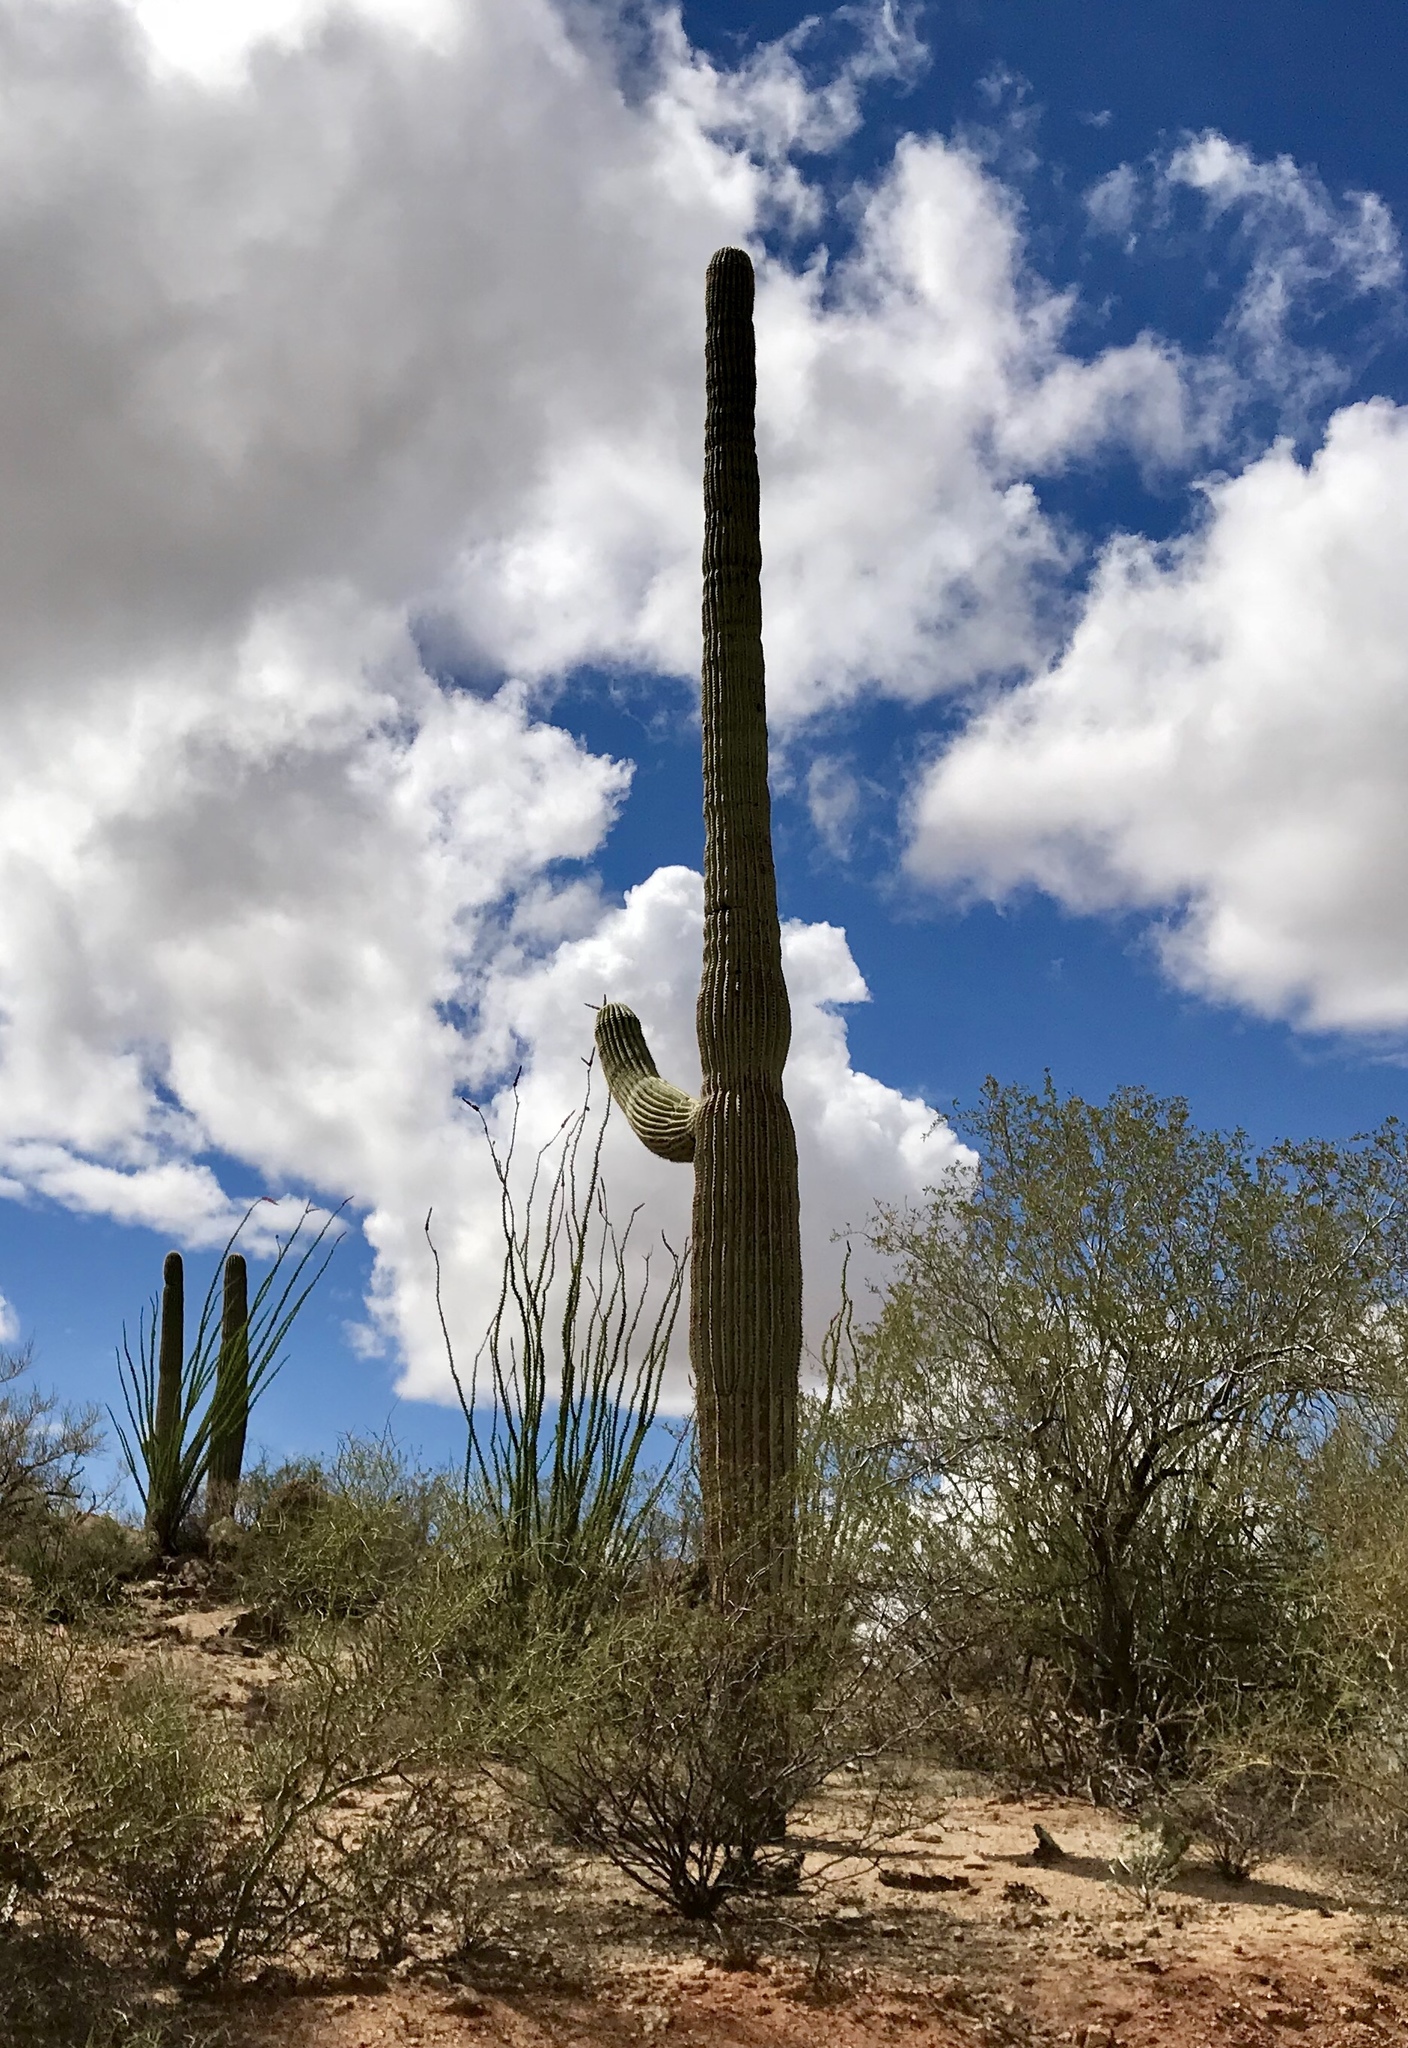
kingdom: Plantae
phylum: Tracheophyta
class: Magnoliopsida
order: Caryophyllales
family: Cactaceae
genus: Carnegiea
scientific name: Carnegiea gigantea
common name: Saguaro
